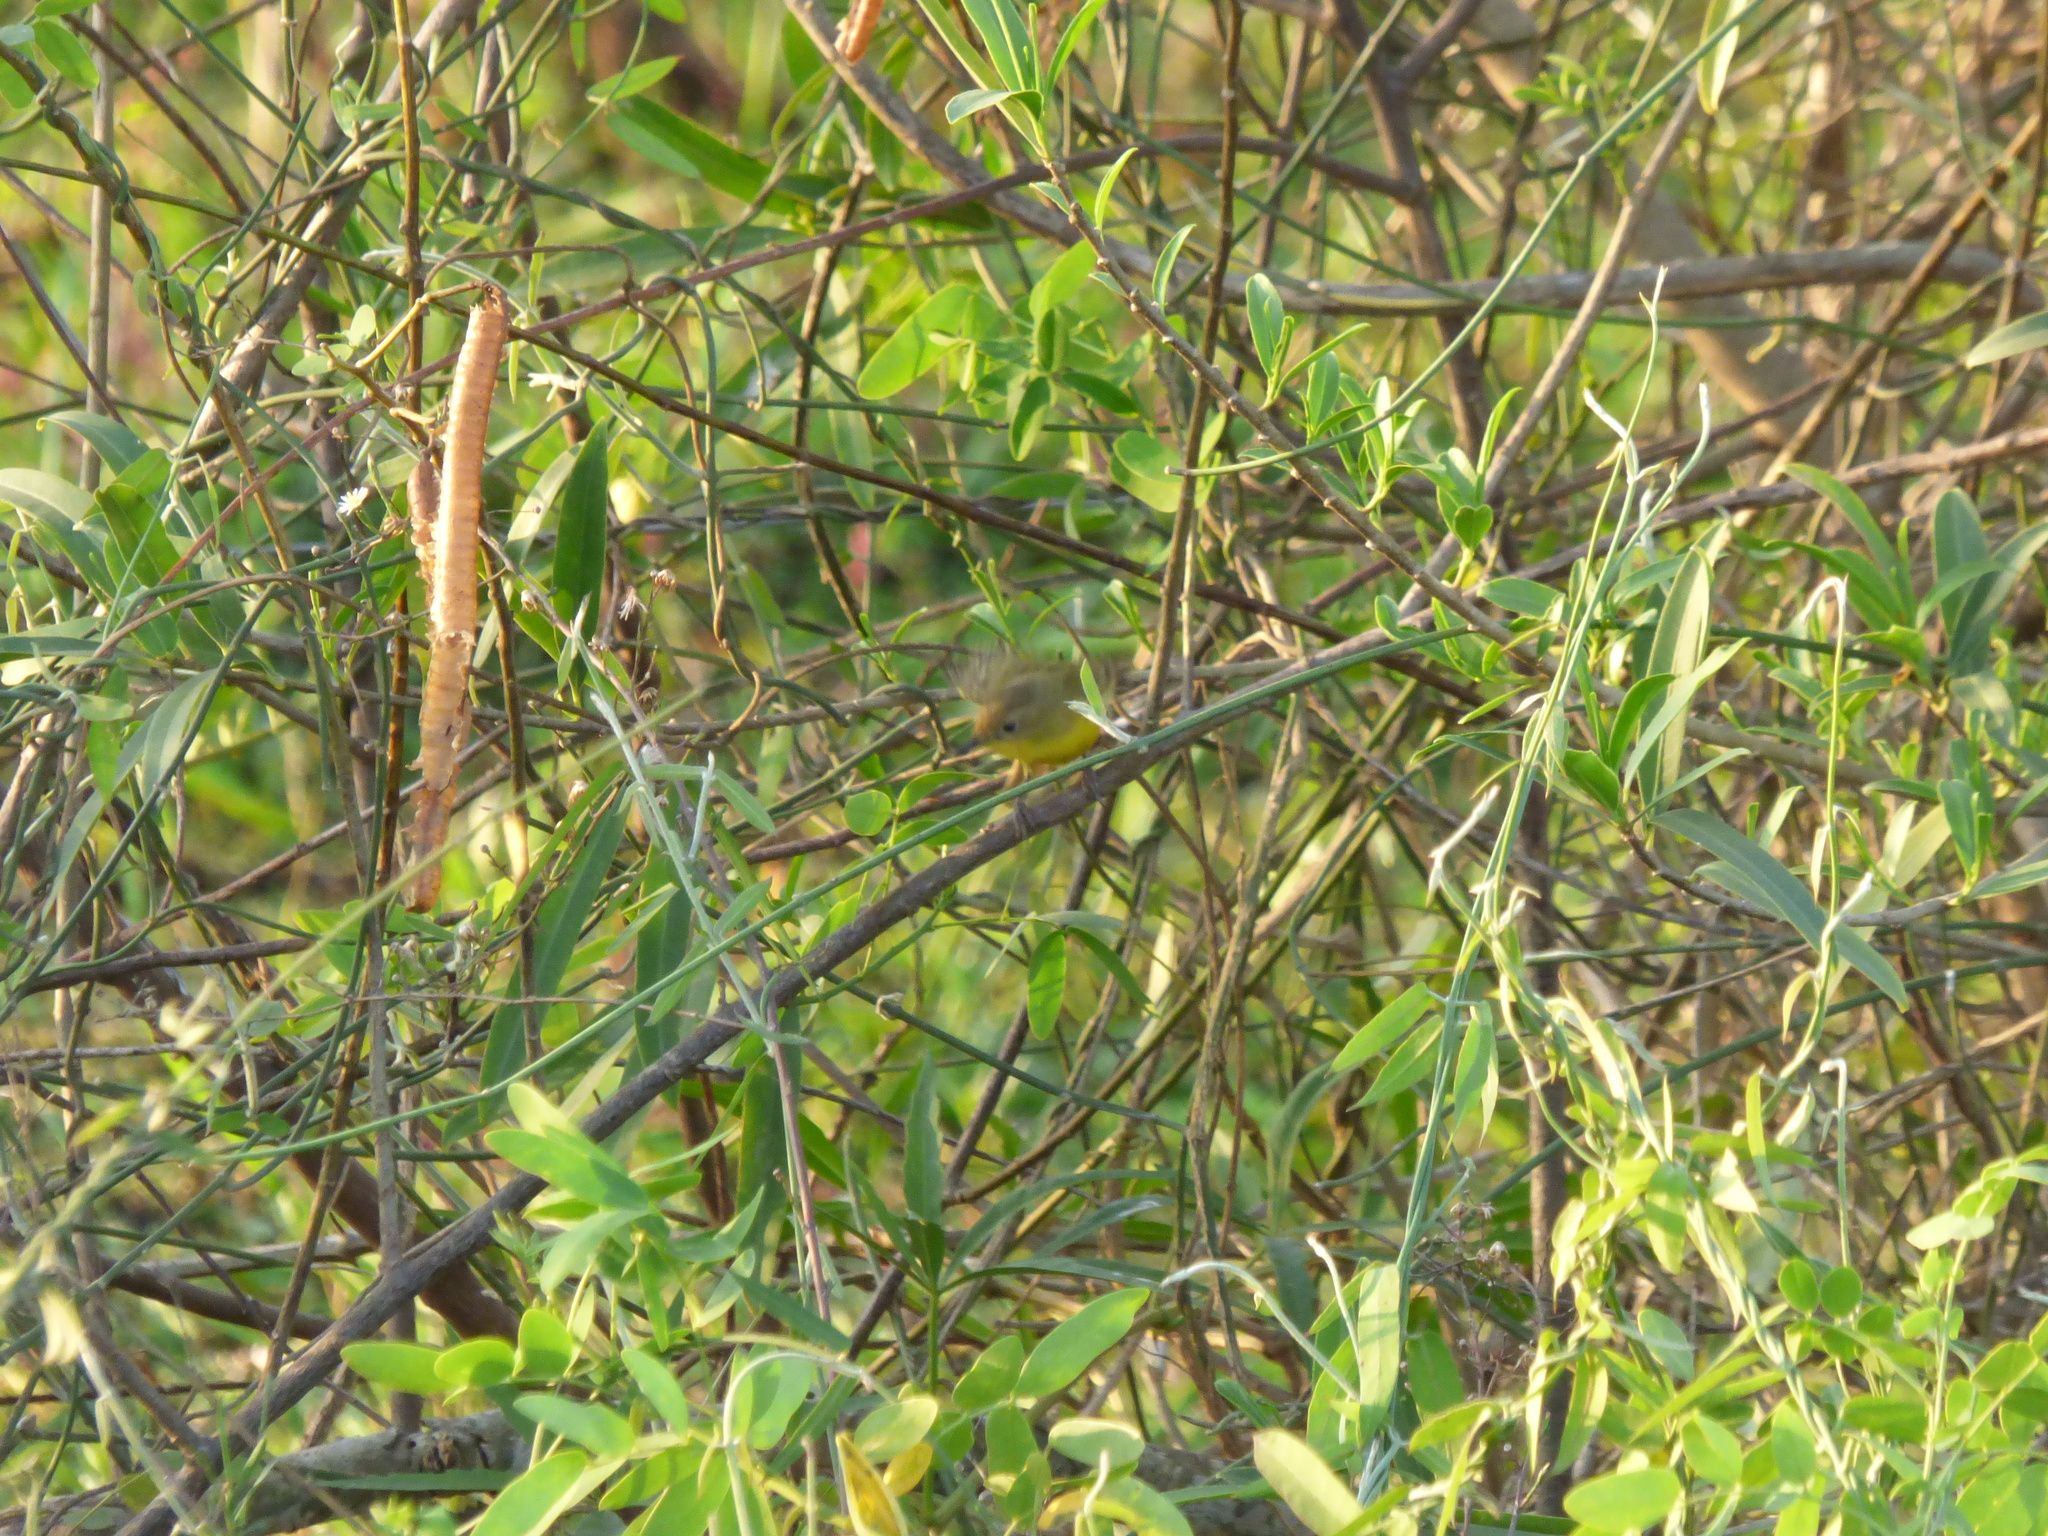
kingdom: Animalia
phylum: Chordata
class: Aves
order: Passeriformes
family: Tyrannidae
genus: Pseudocolopteryx
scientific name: Pseudocolopteryx dinelliana
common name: Dinelli's doradito
